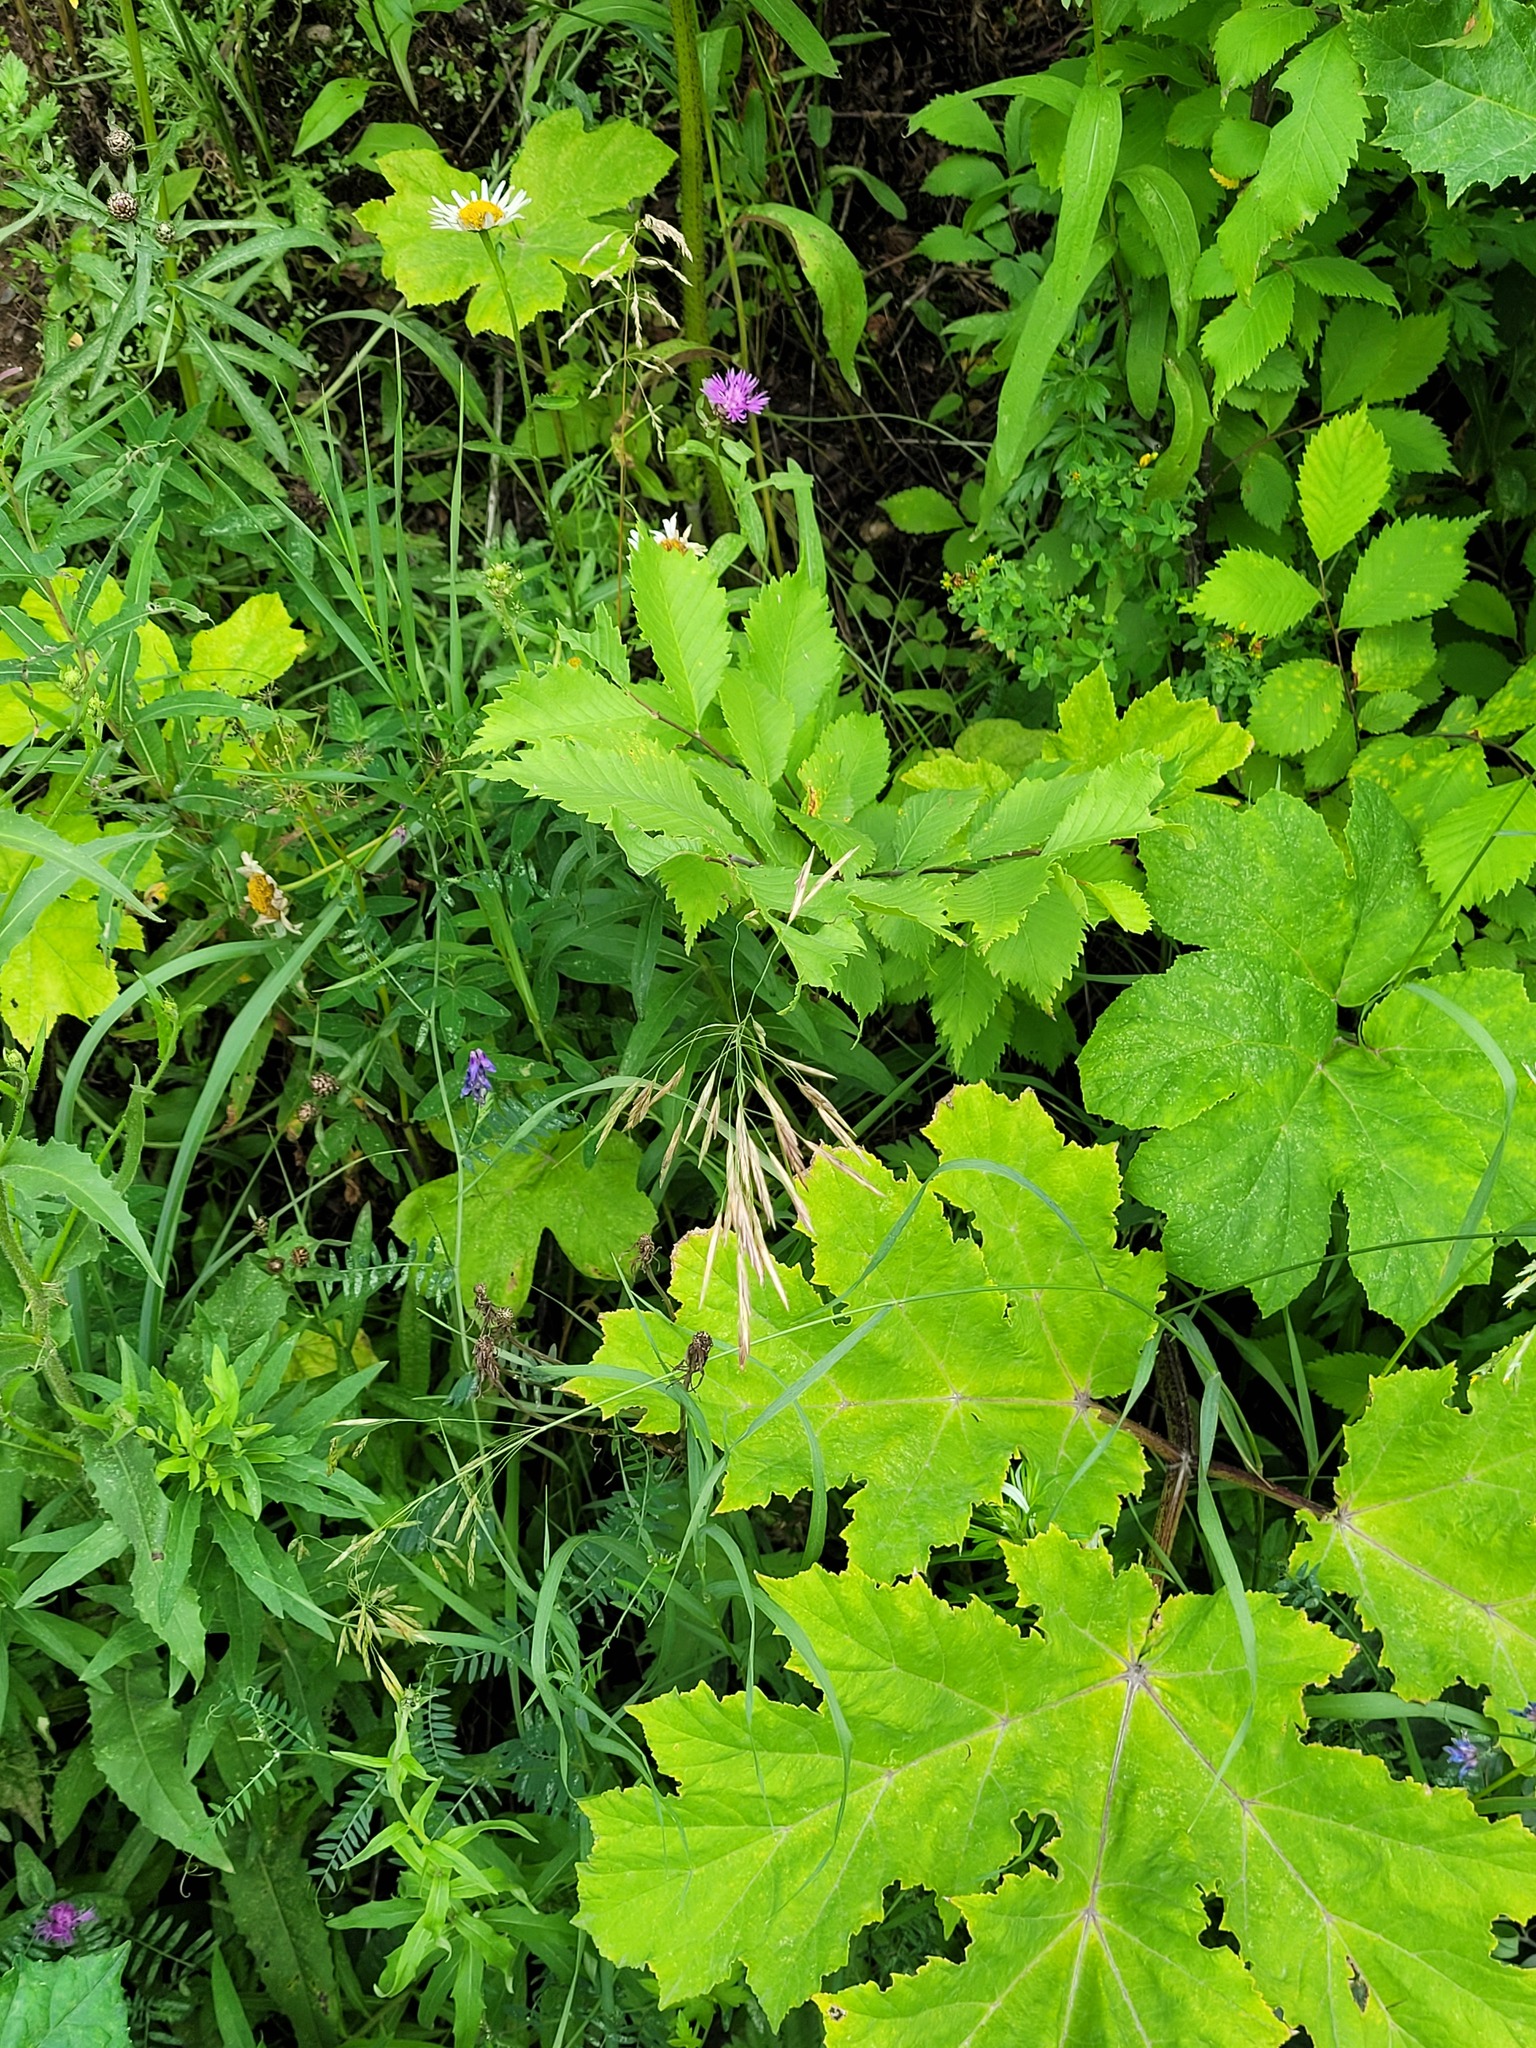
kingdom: Plantae
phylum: Tracheophyta
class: Liliopsida
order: Poales
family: Poaceae
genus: Bromus
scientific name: Bromus inermis
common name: Smooth brome
